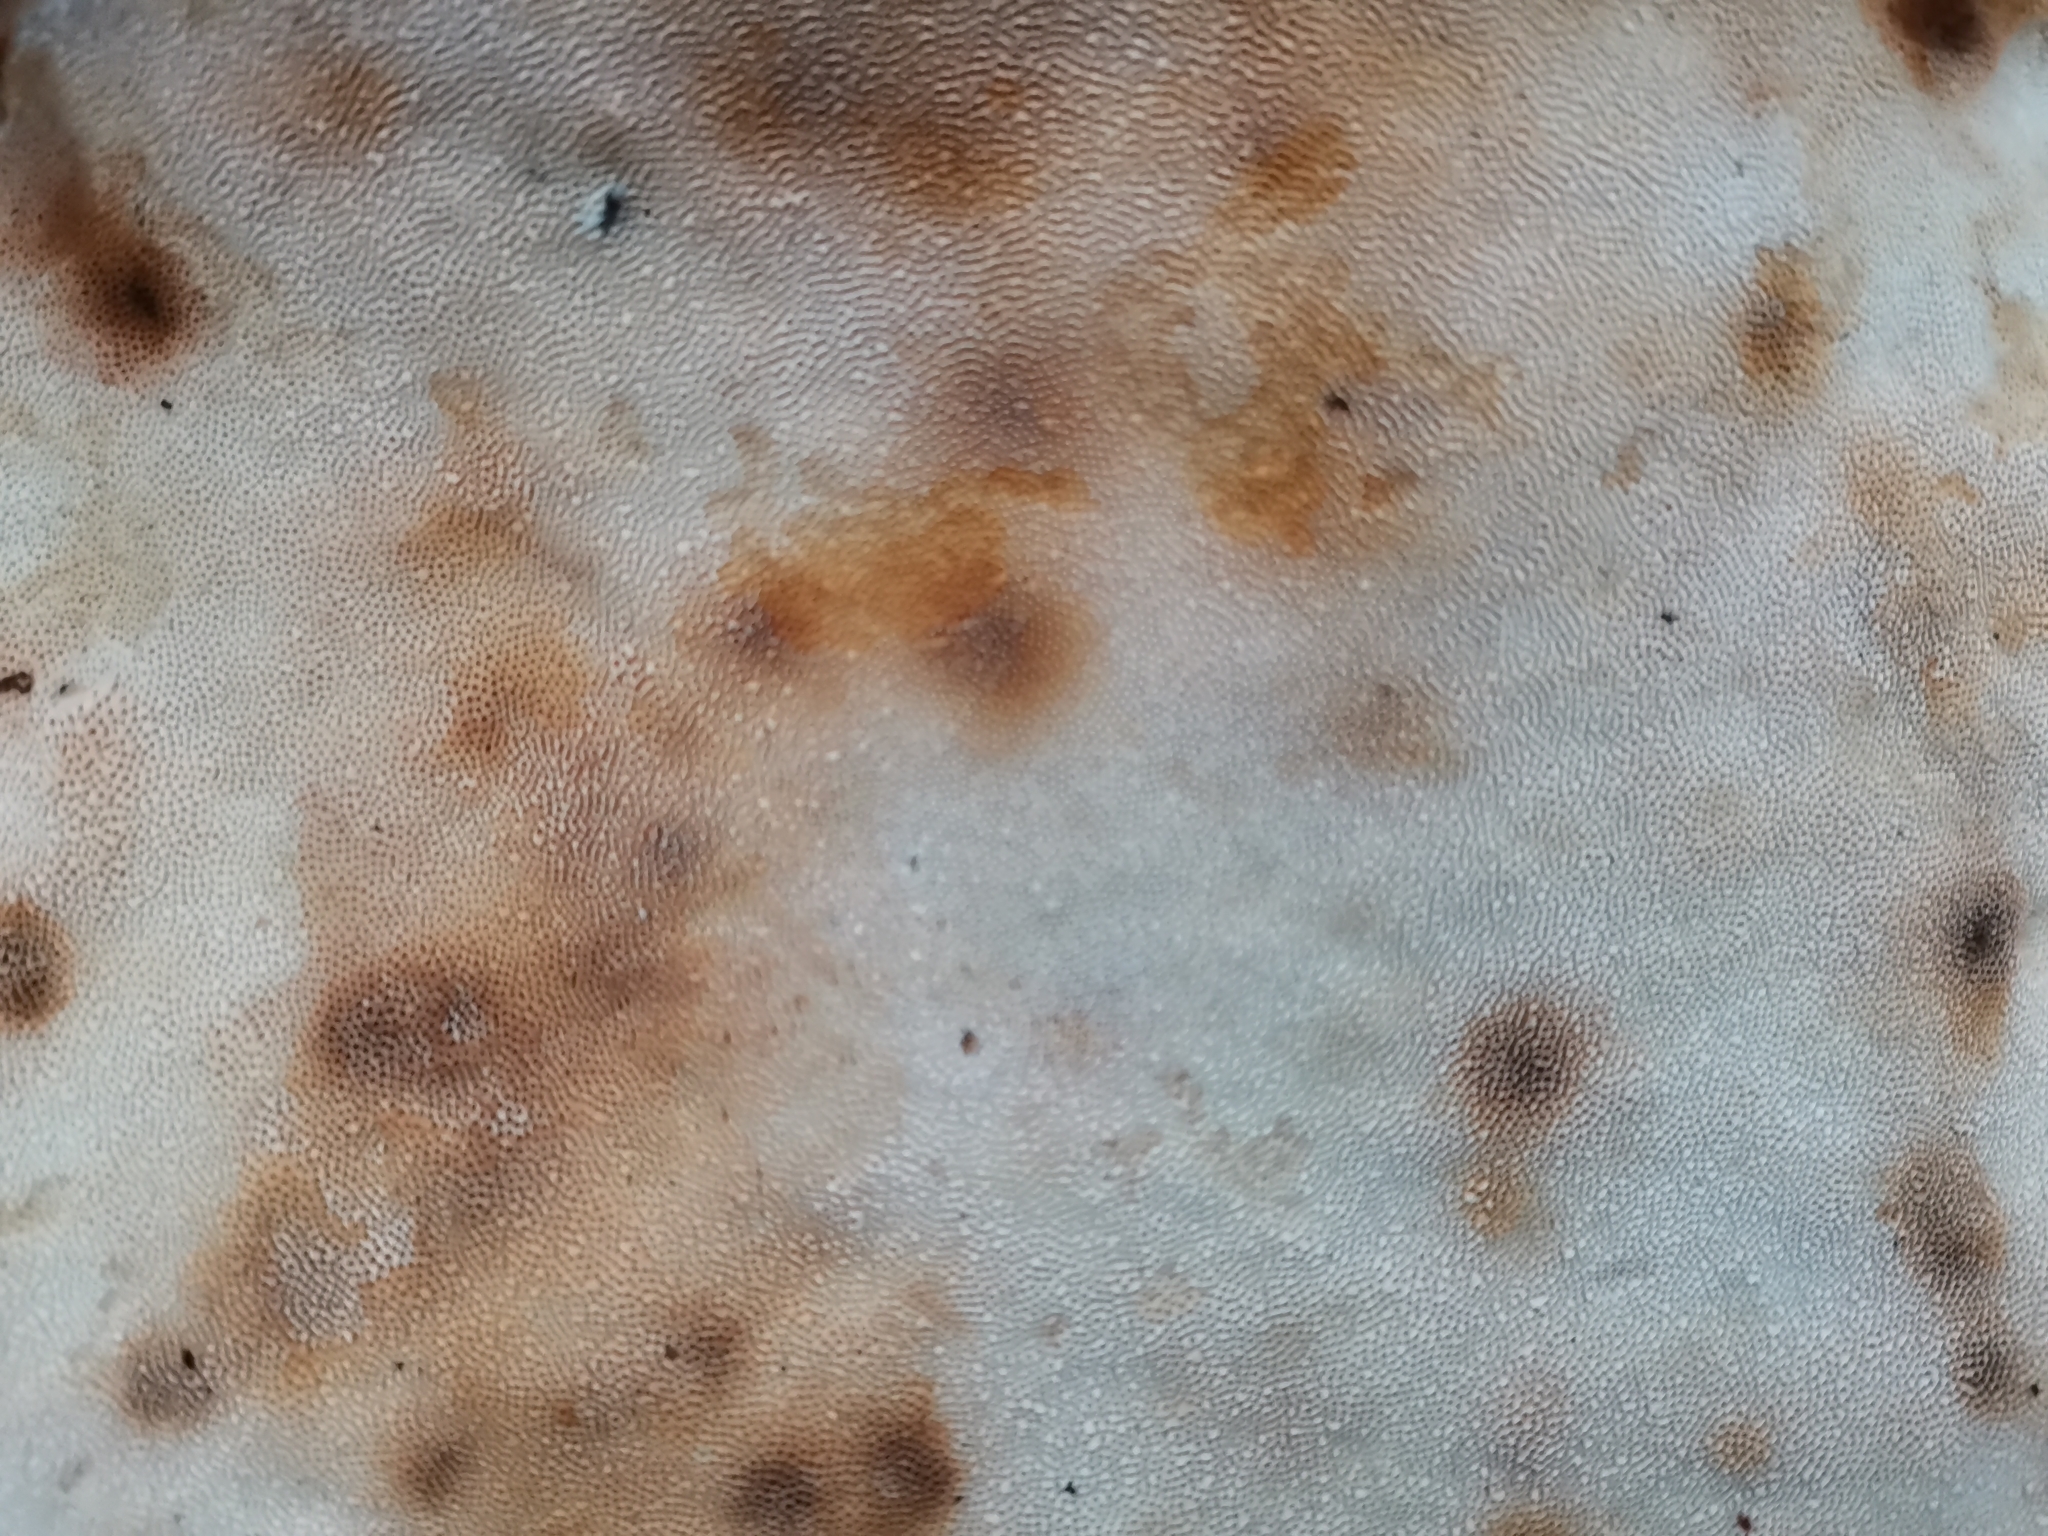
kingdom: Fungi
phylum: Basidiomycota
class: Agaricomycetes
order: Polyporales
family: Fomitopsidaceae
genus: Fomitopsis
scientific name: Fomitopsis pinicola
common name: Red-belted bracket
